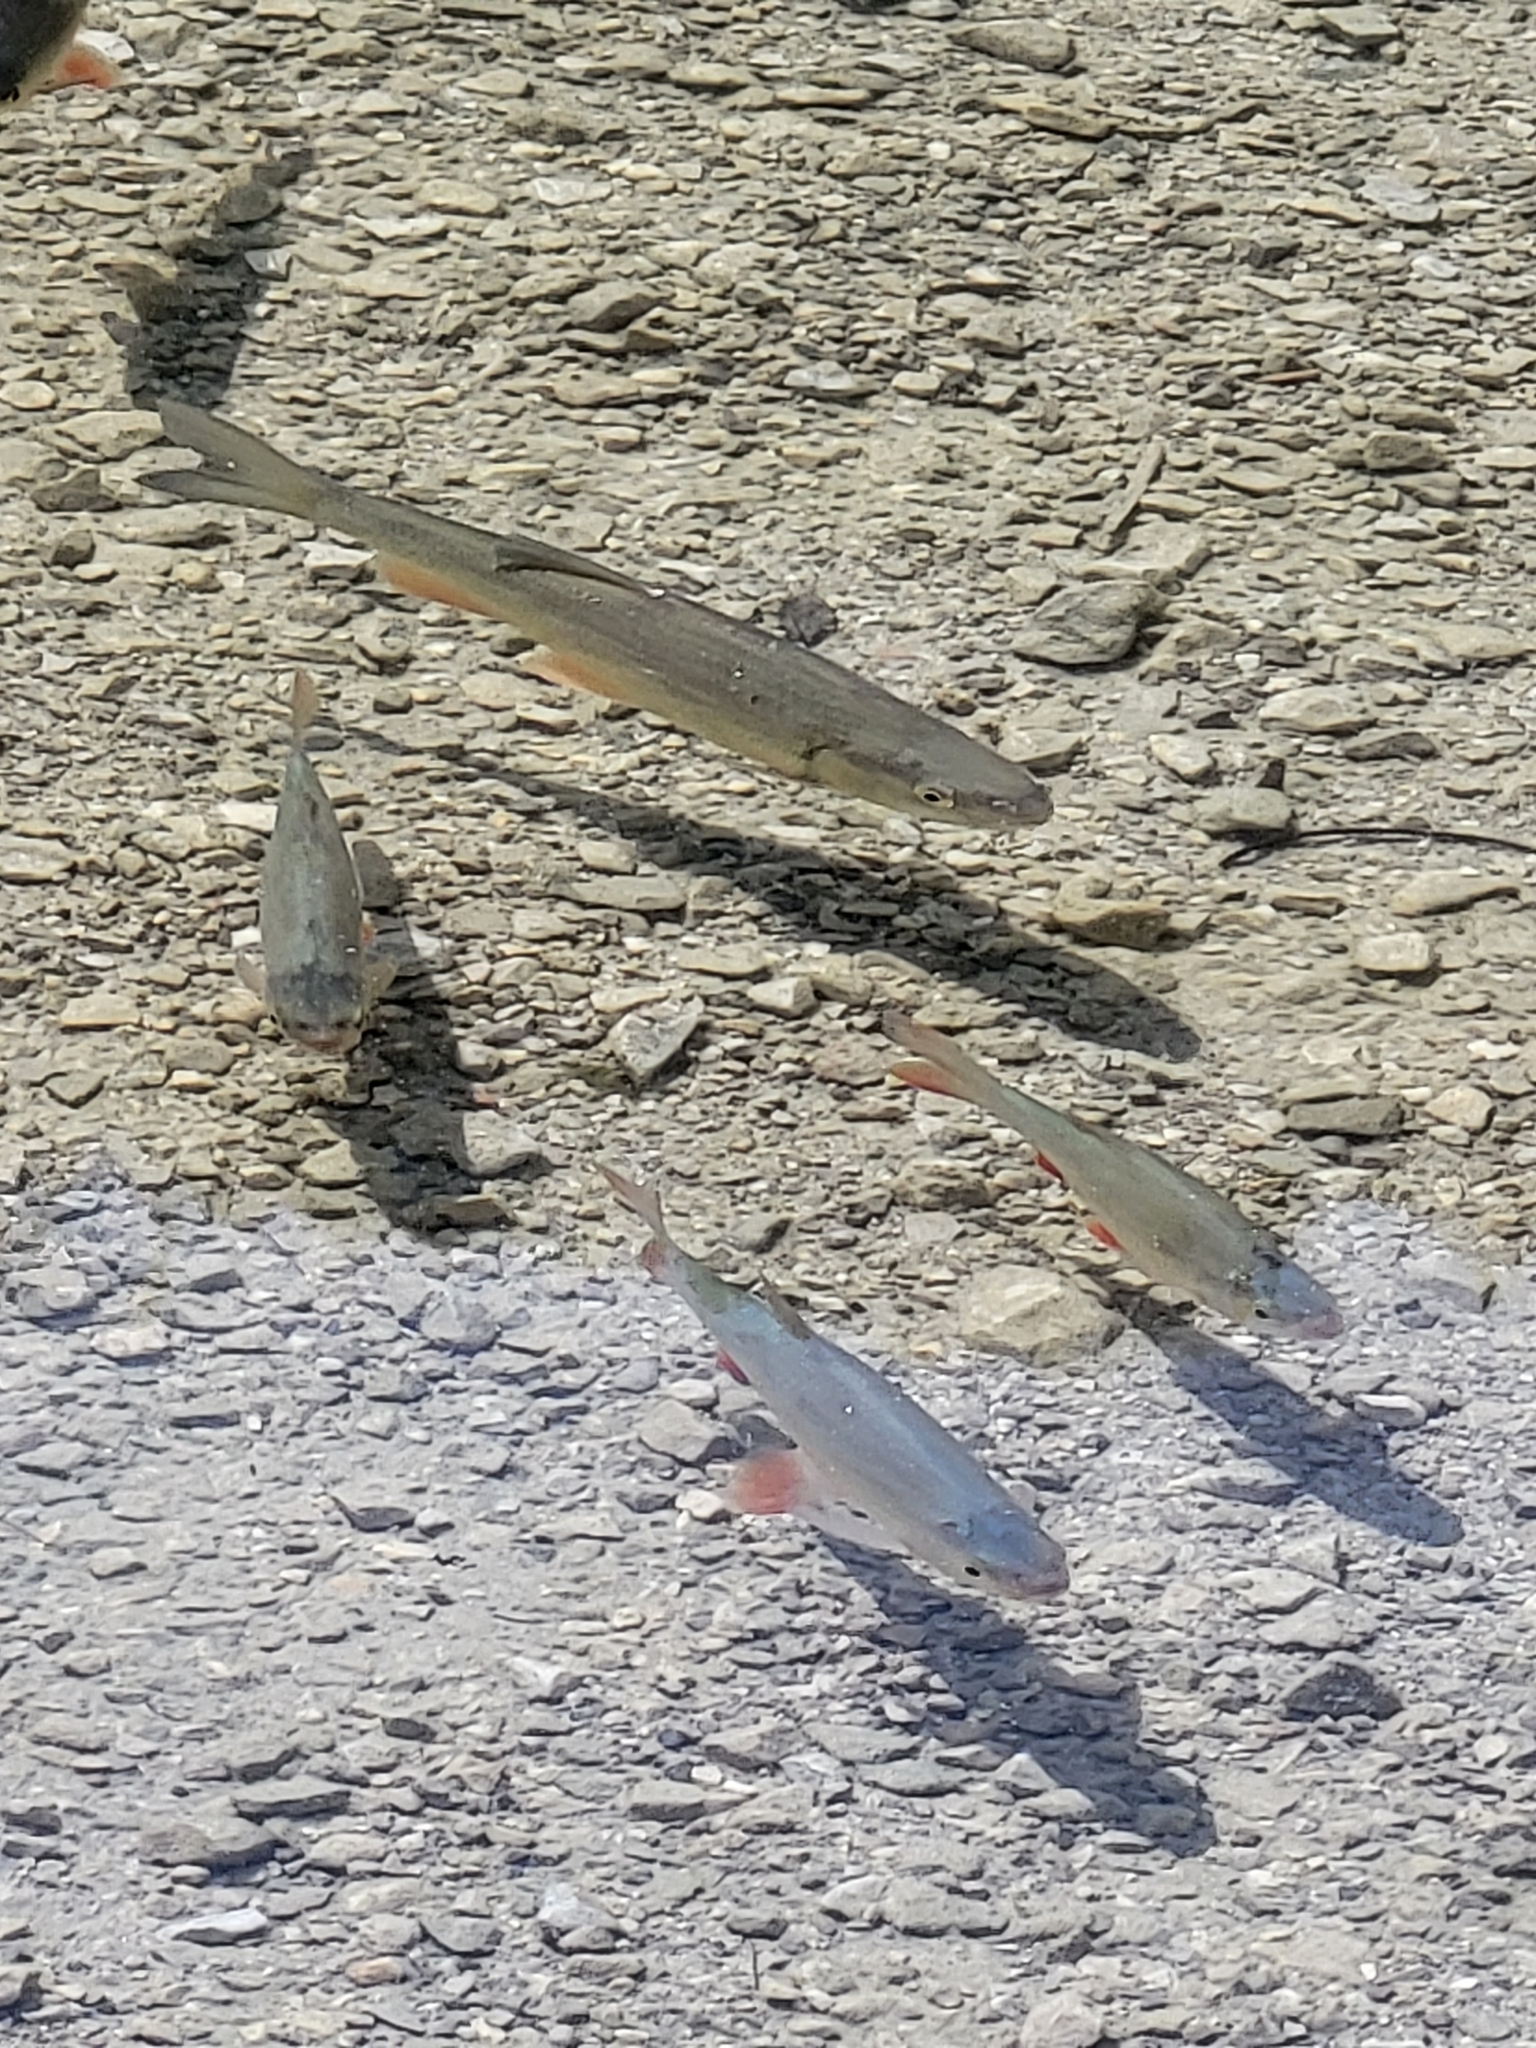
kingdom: Animalia
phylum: Chordata
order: Cypriniformes
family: Cyprinidae
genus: Scardinius
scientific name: Scardinius erythrophthalmus
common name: Rudd
